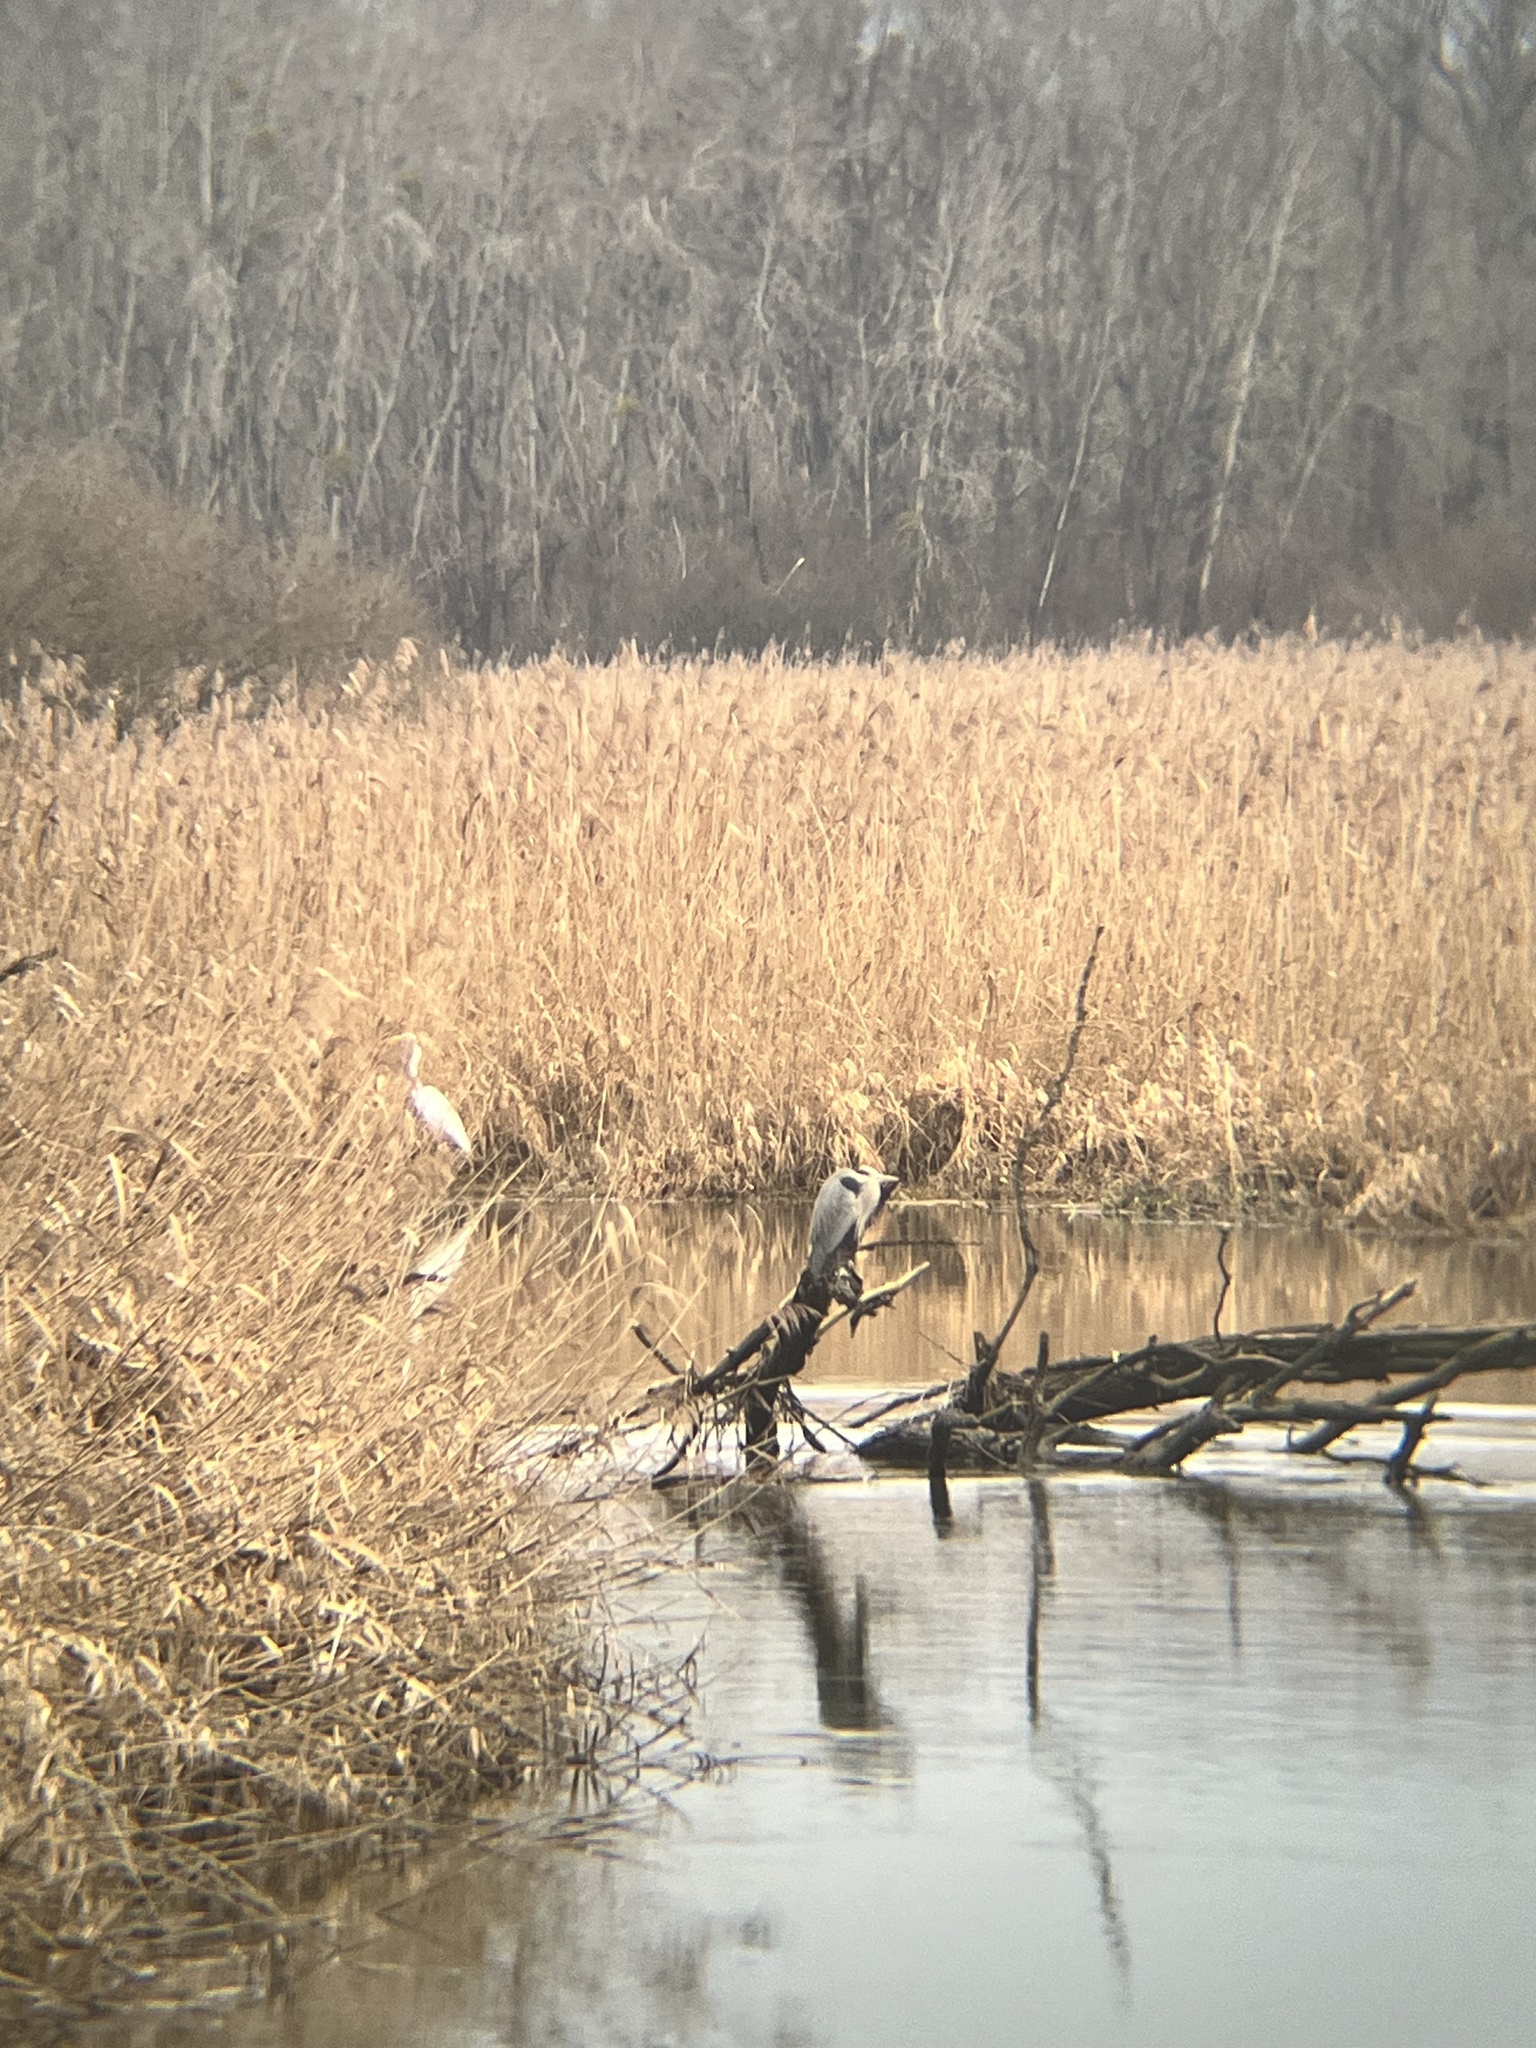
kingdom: Animalia
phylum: Chordata
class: Aves
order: Pelecaniformes
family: Ardeidae
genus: Ardea
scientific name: Ardea alba
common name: Great egret
